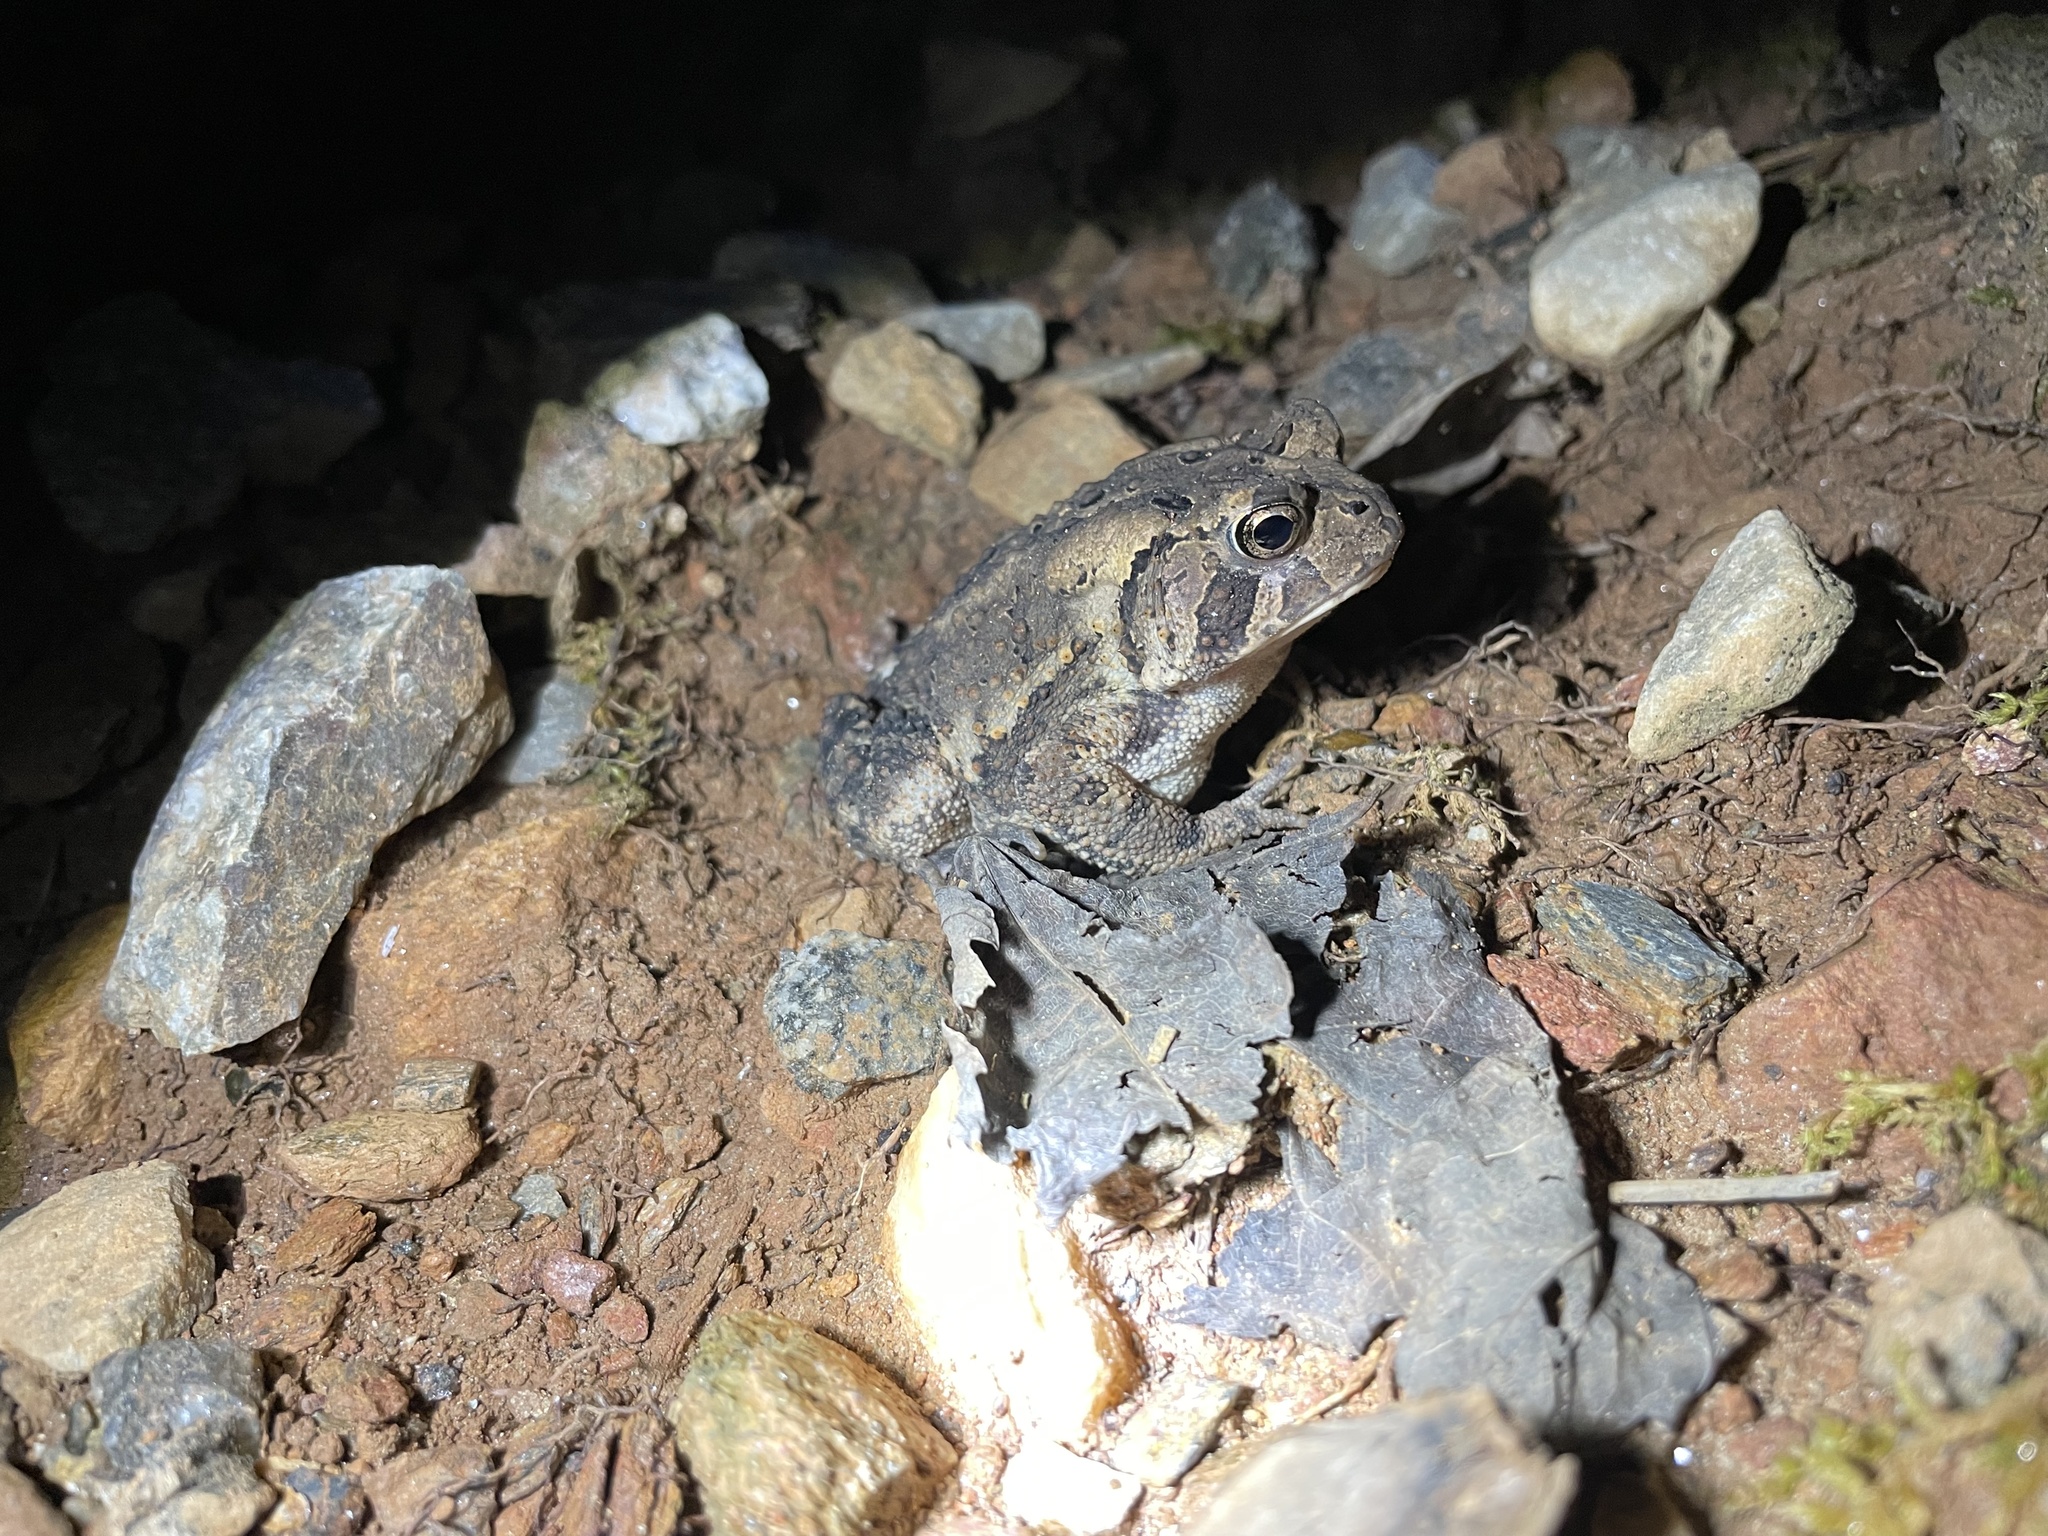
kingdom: Animalia
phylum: Chordata
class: Amphibia
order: Anura
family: Bufonidae
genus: Anaxyrus
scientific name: Anaxyrus americanus
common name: American toad
